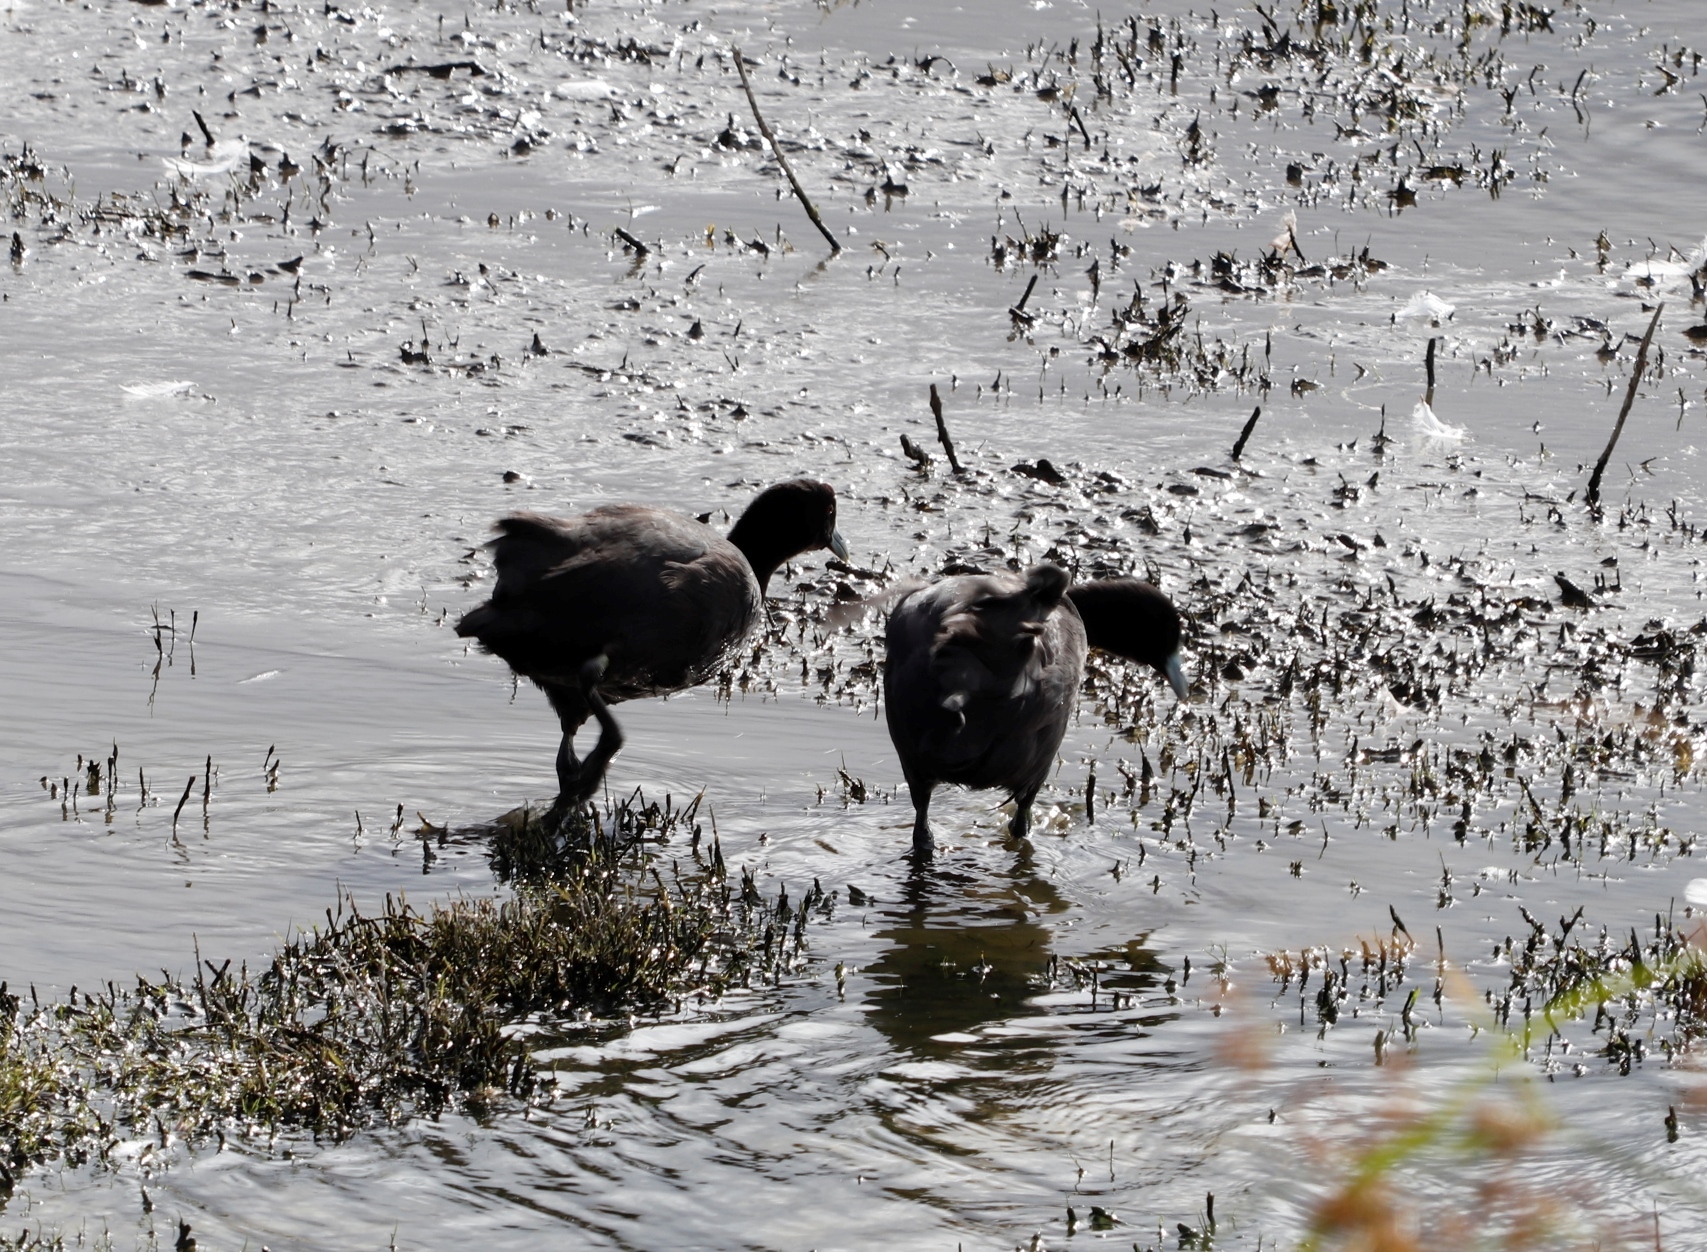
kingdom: Animalia
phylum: Chordata
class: Aves
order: Gruiformes
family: Rallidae
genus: Fulica
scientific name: Fulica cristata
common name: Red-knobbed coot
